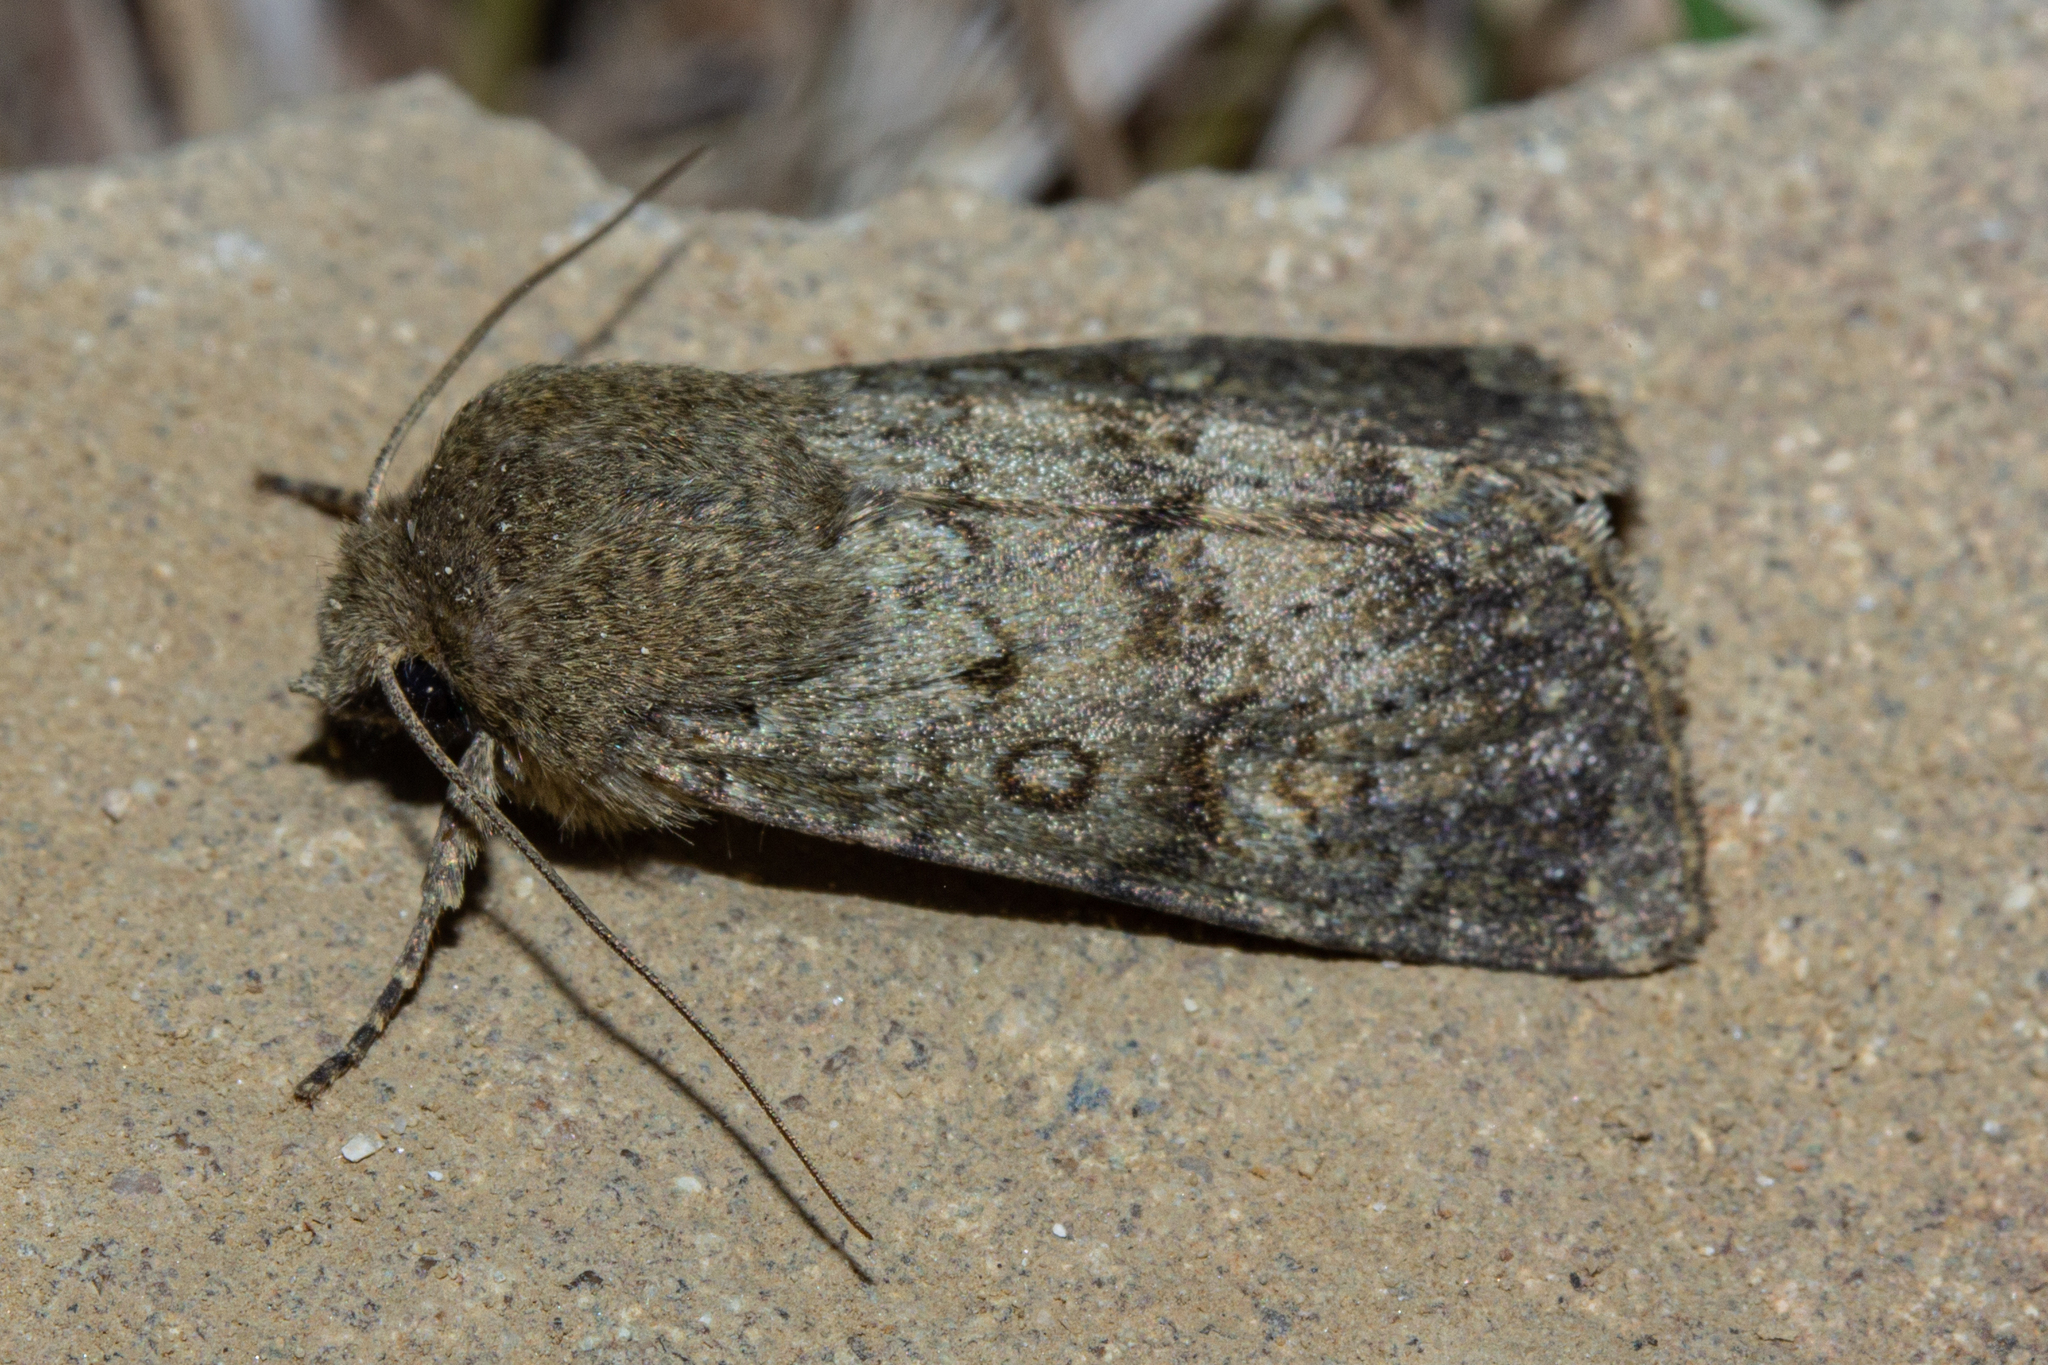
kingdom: Animalia
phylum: Arthropoda
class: Insecta
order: Lepidoptera
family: Noctuidae
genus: Ichneutica
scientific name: Ichneutica moderata
